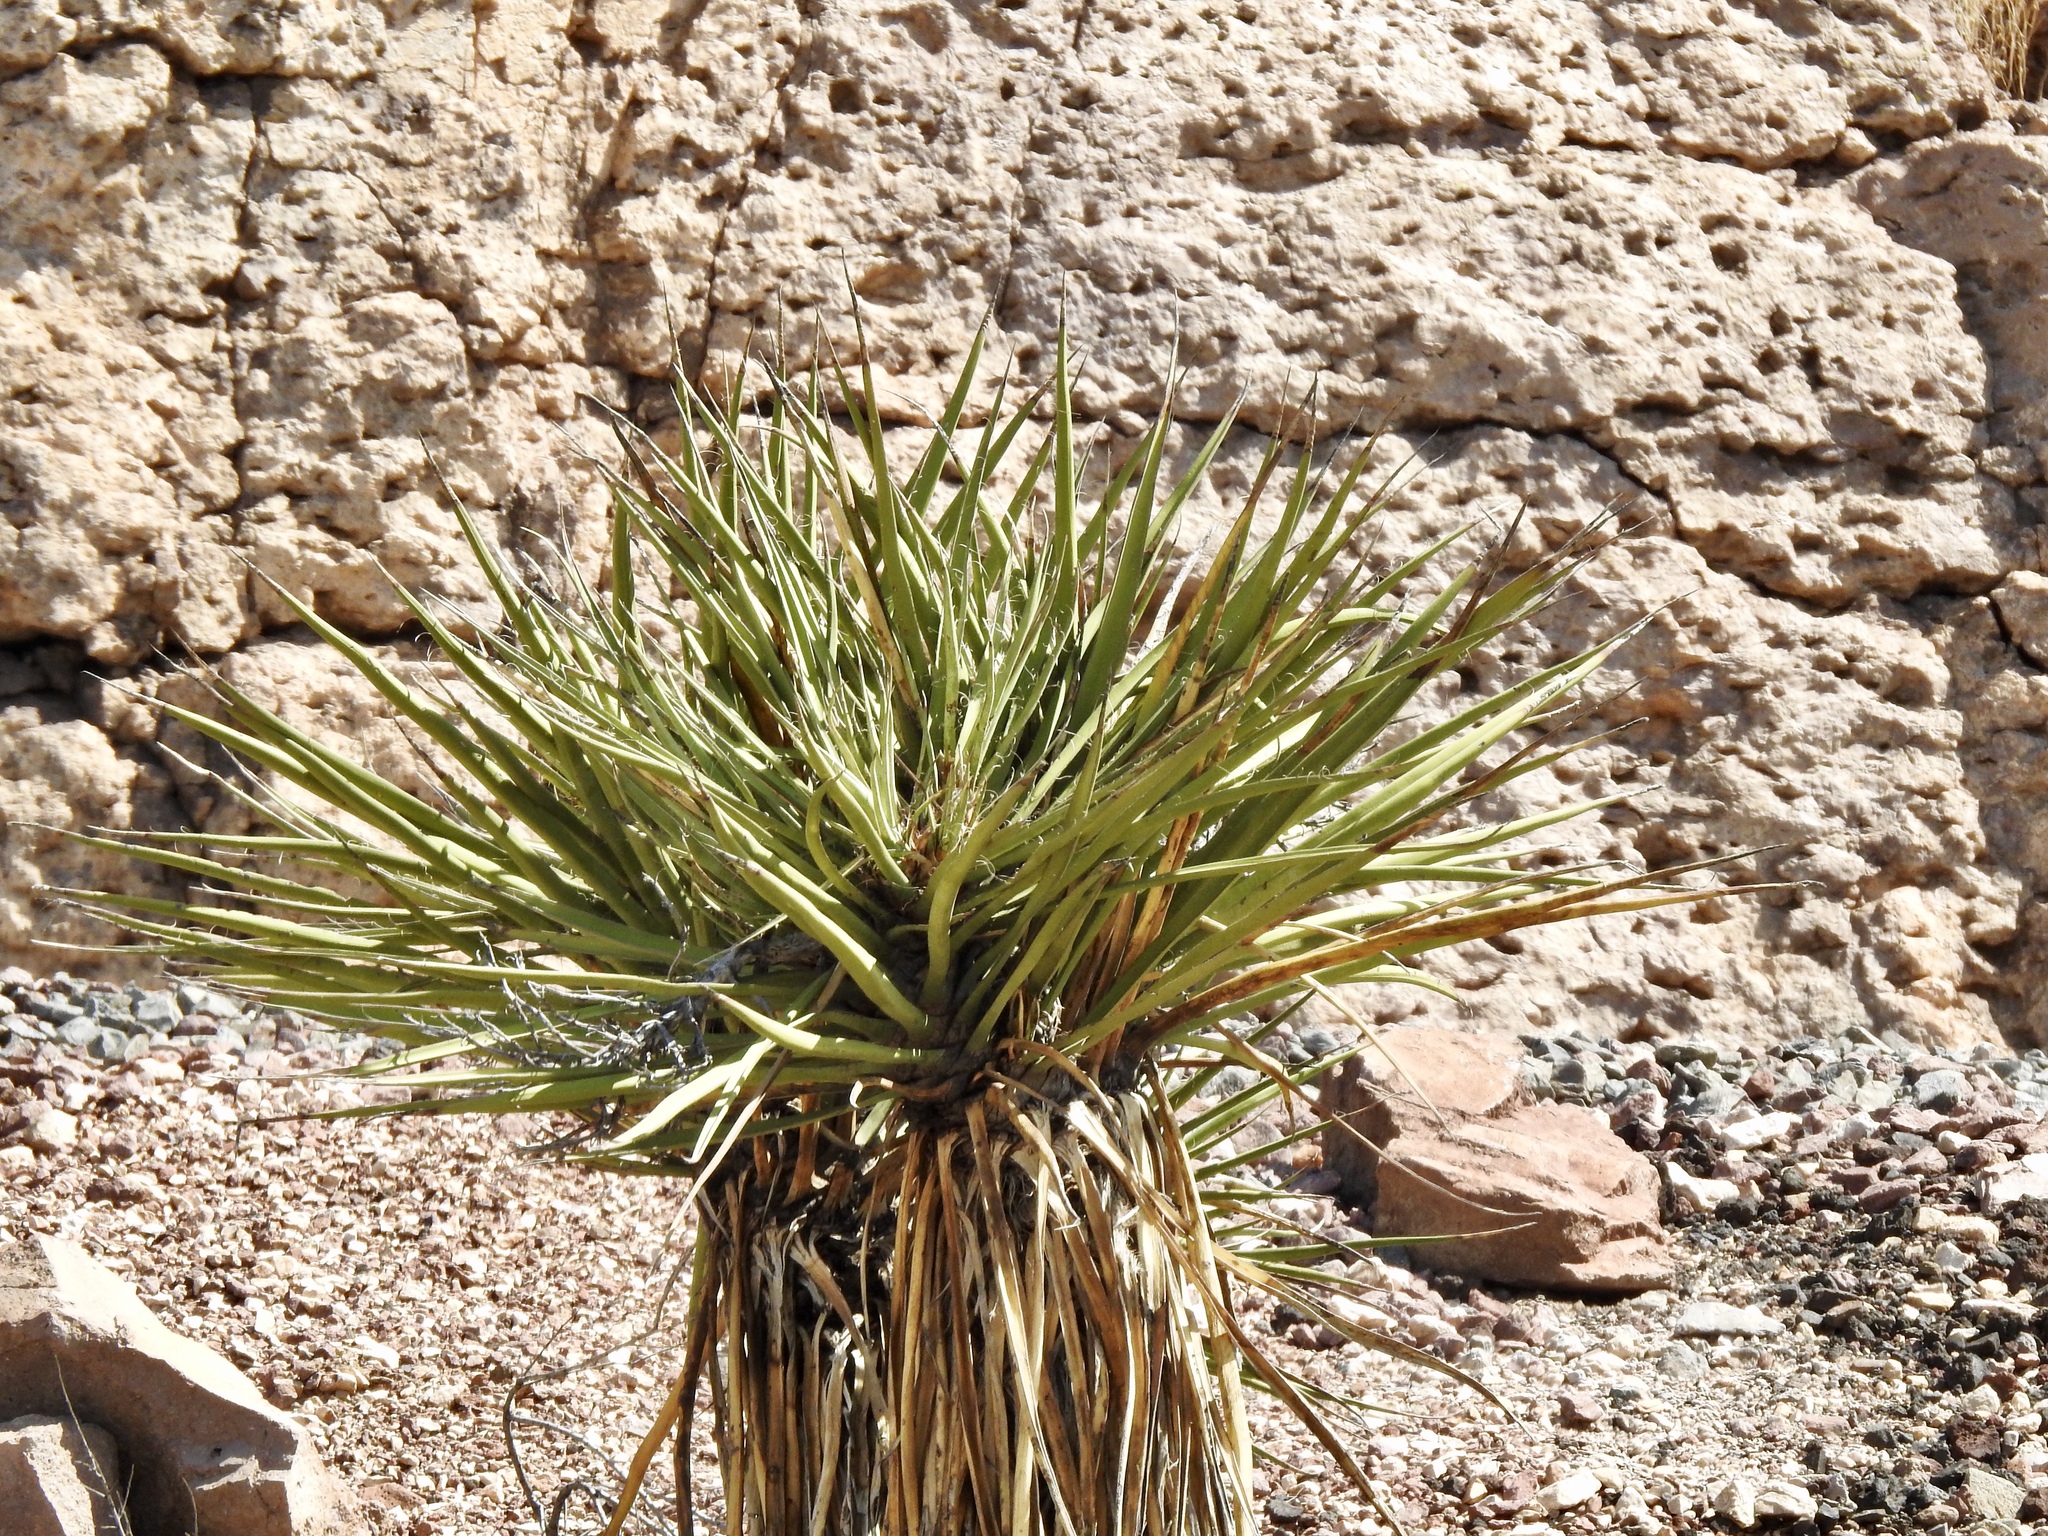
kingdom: Plantae
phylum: Tracheophyta
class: Liliopsida
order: Asparagales
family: Asparagaceae
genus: Yucca
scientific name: Yucca schidigera
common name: Mojave yucca
